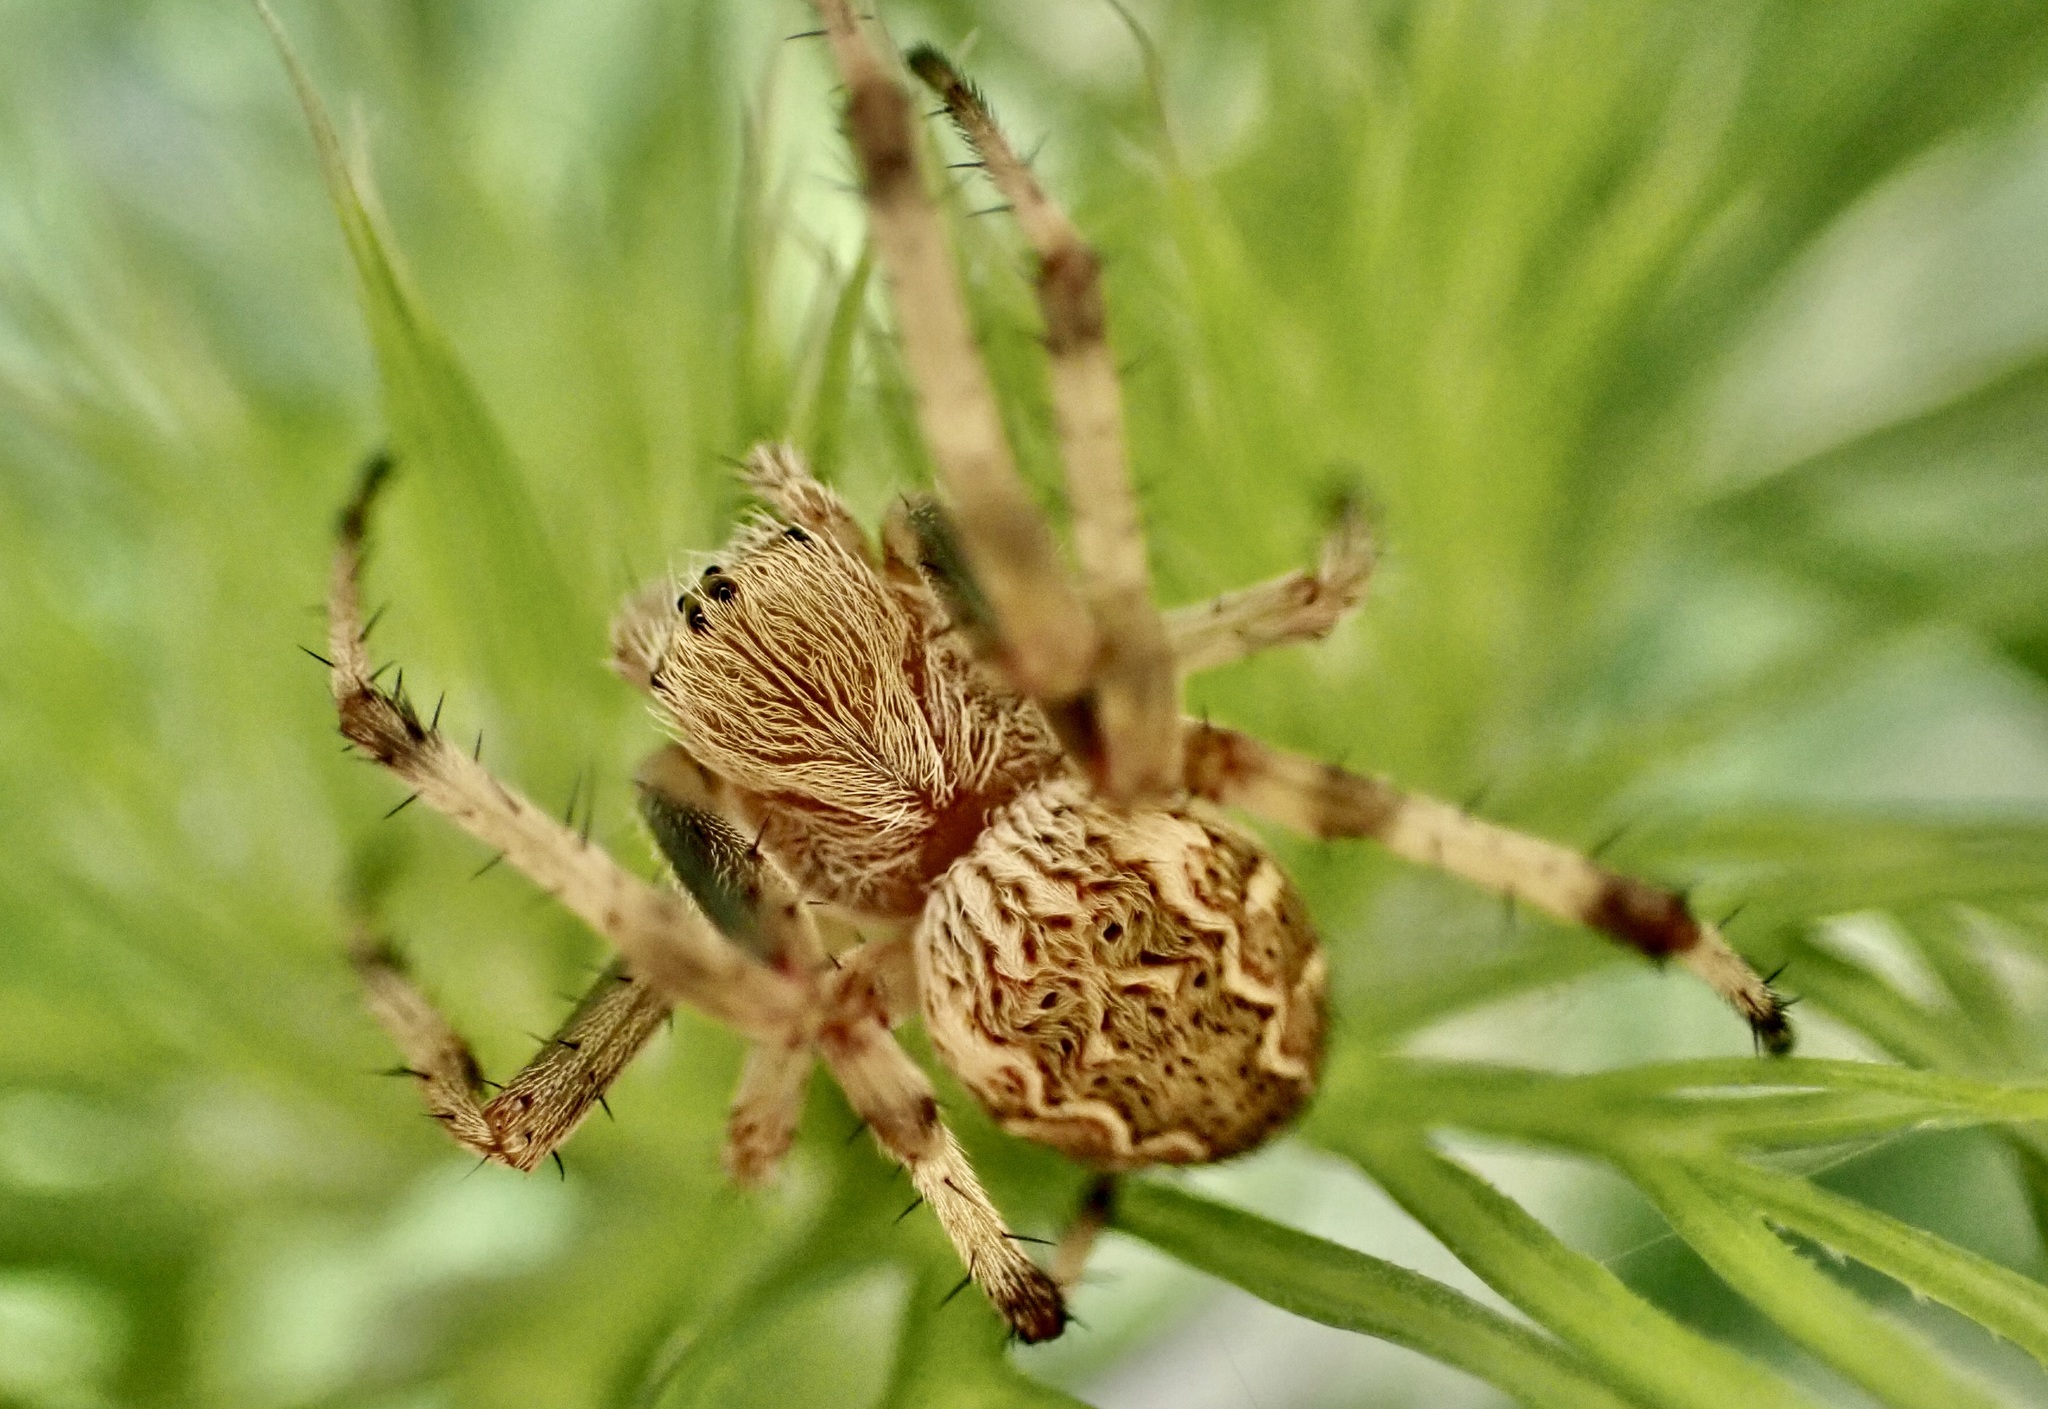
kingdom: Animalia
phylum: Arthropoda
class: Arachnida
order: Araneae
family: Araneidae
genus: Salsa
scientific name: Salsa fuliginata
